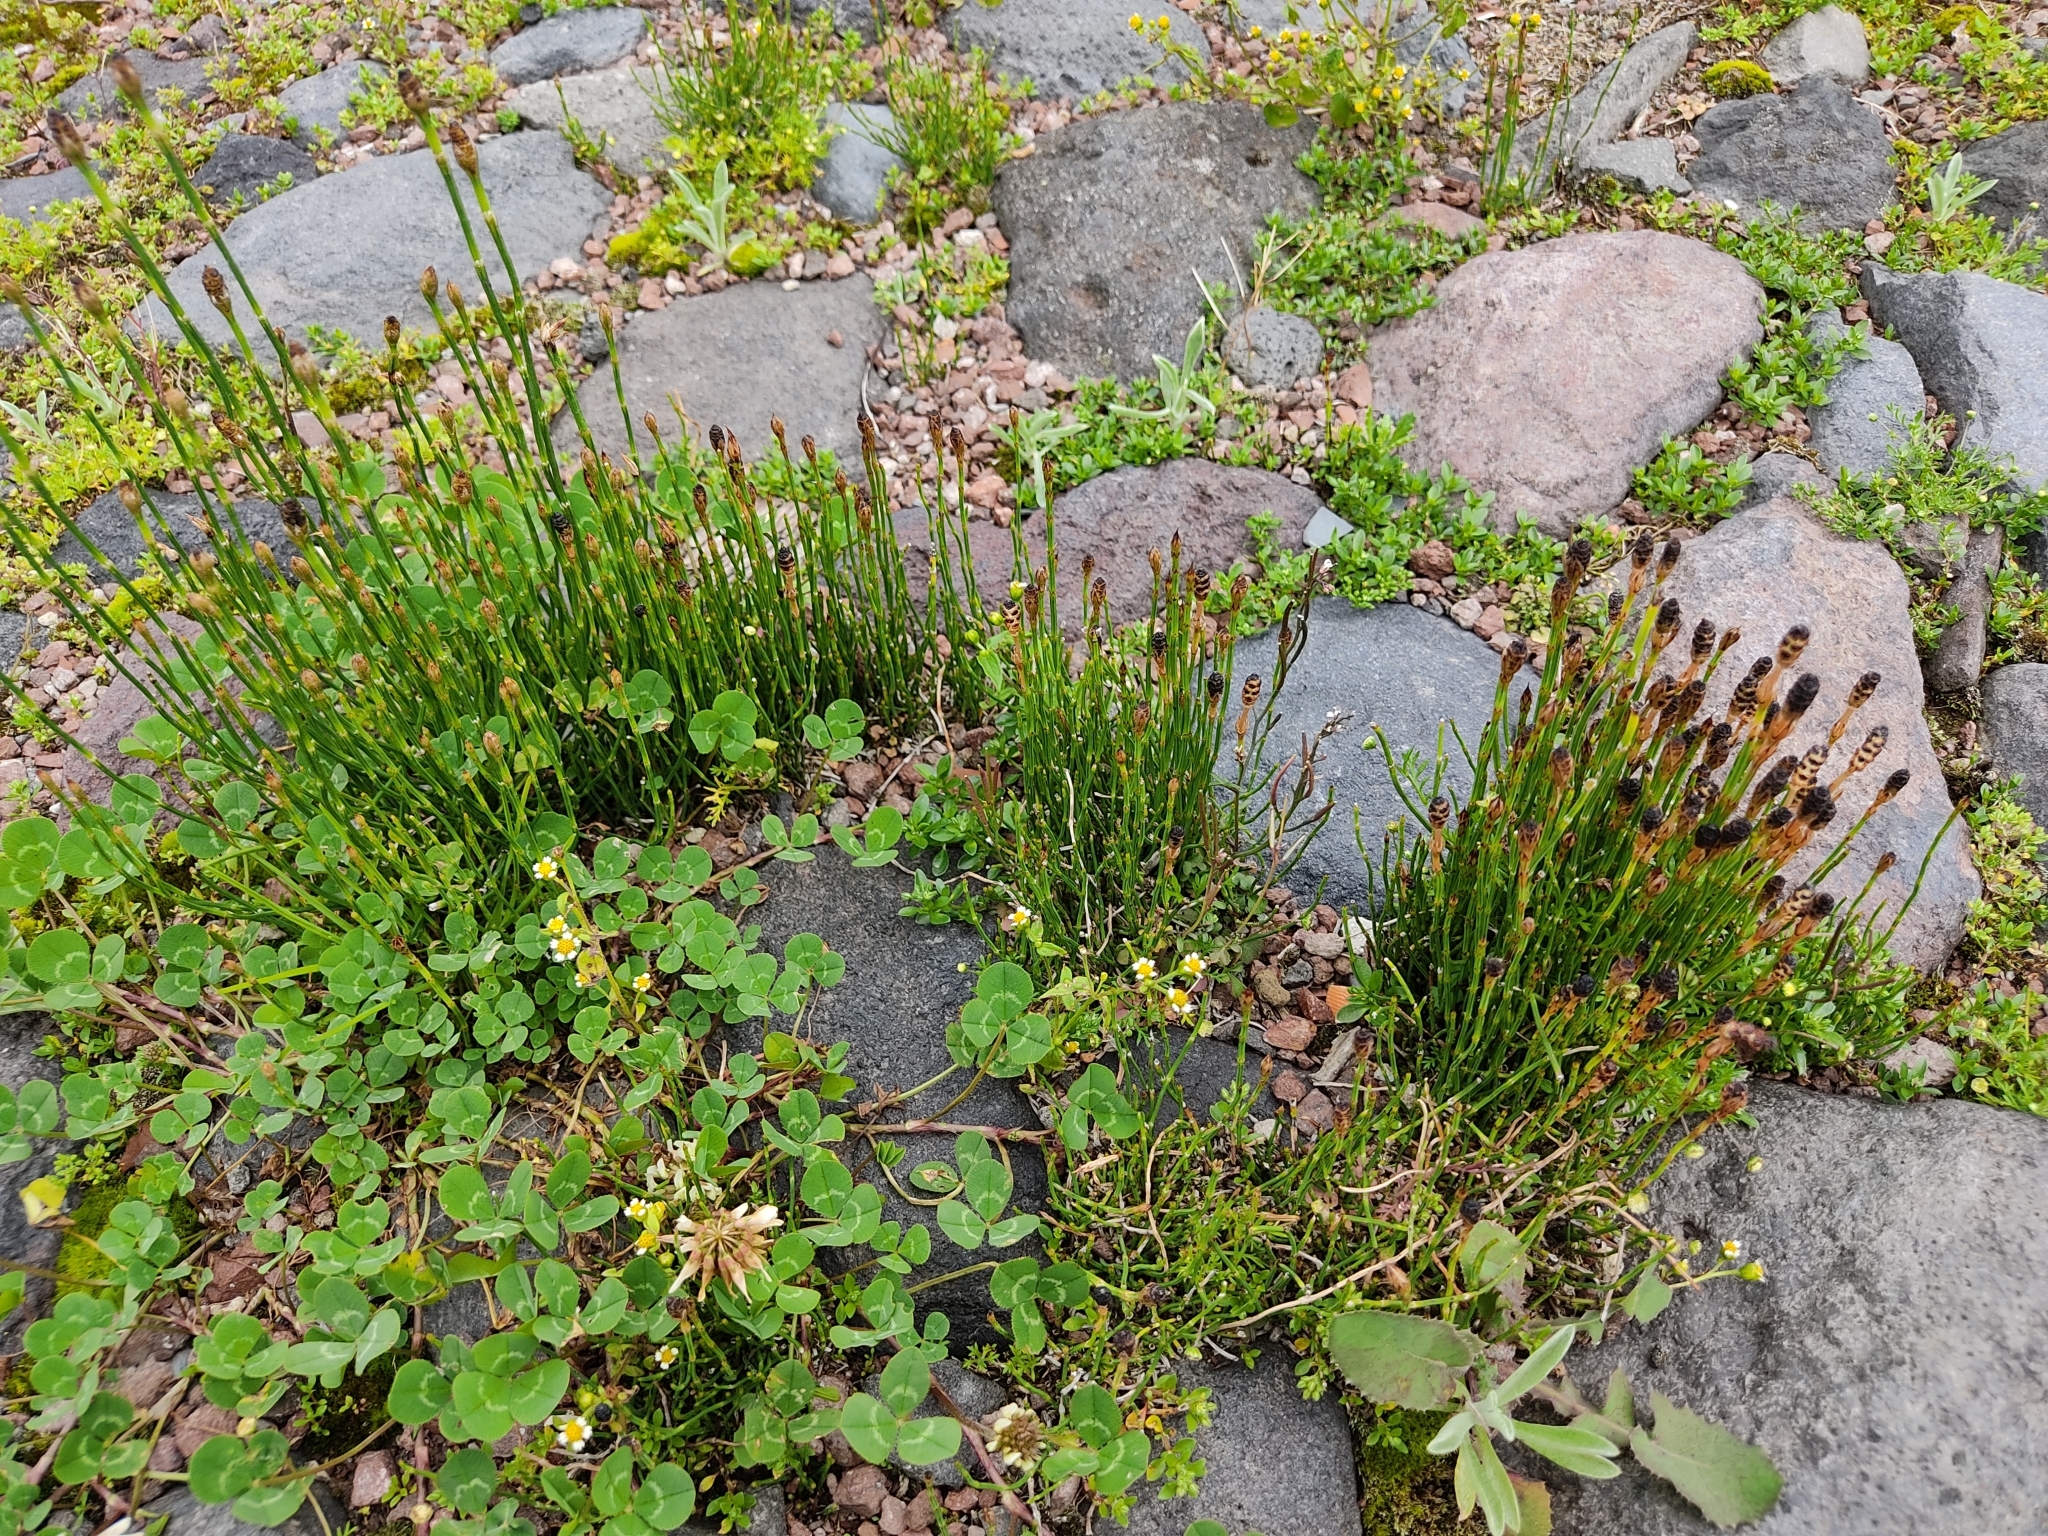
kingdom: Plantae
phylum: Tracheophyta
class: Polypodiopsida
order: Equisetales
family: Equisetaceae
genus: Equisetum
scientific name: Equisetum bogotense
